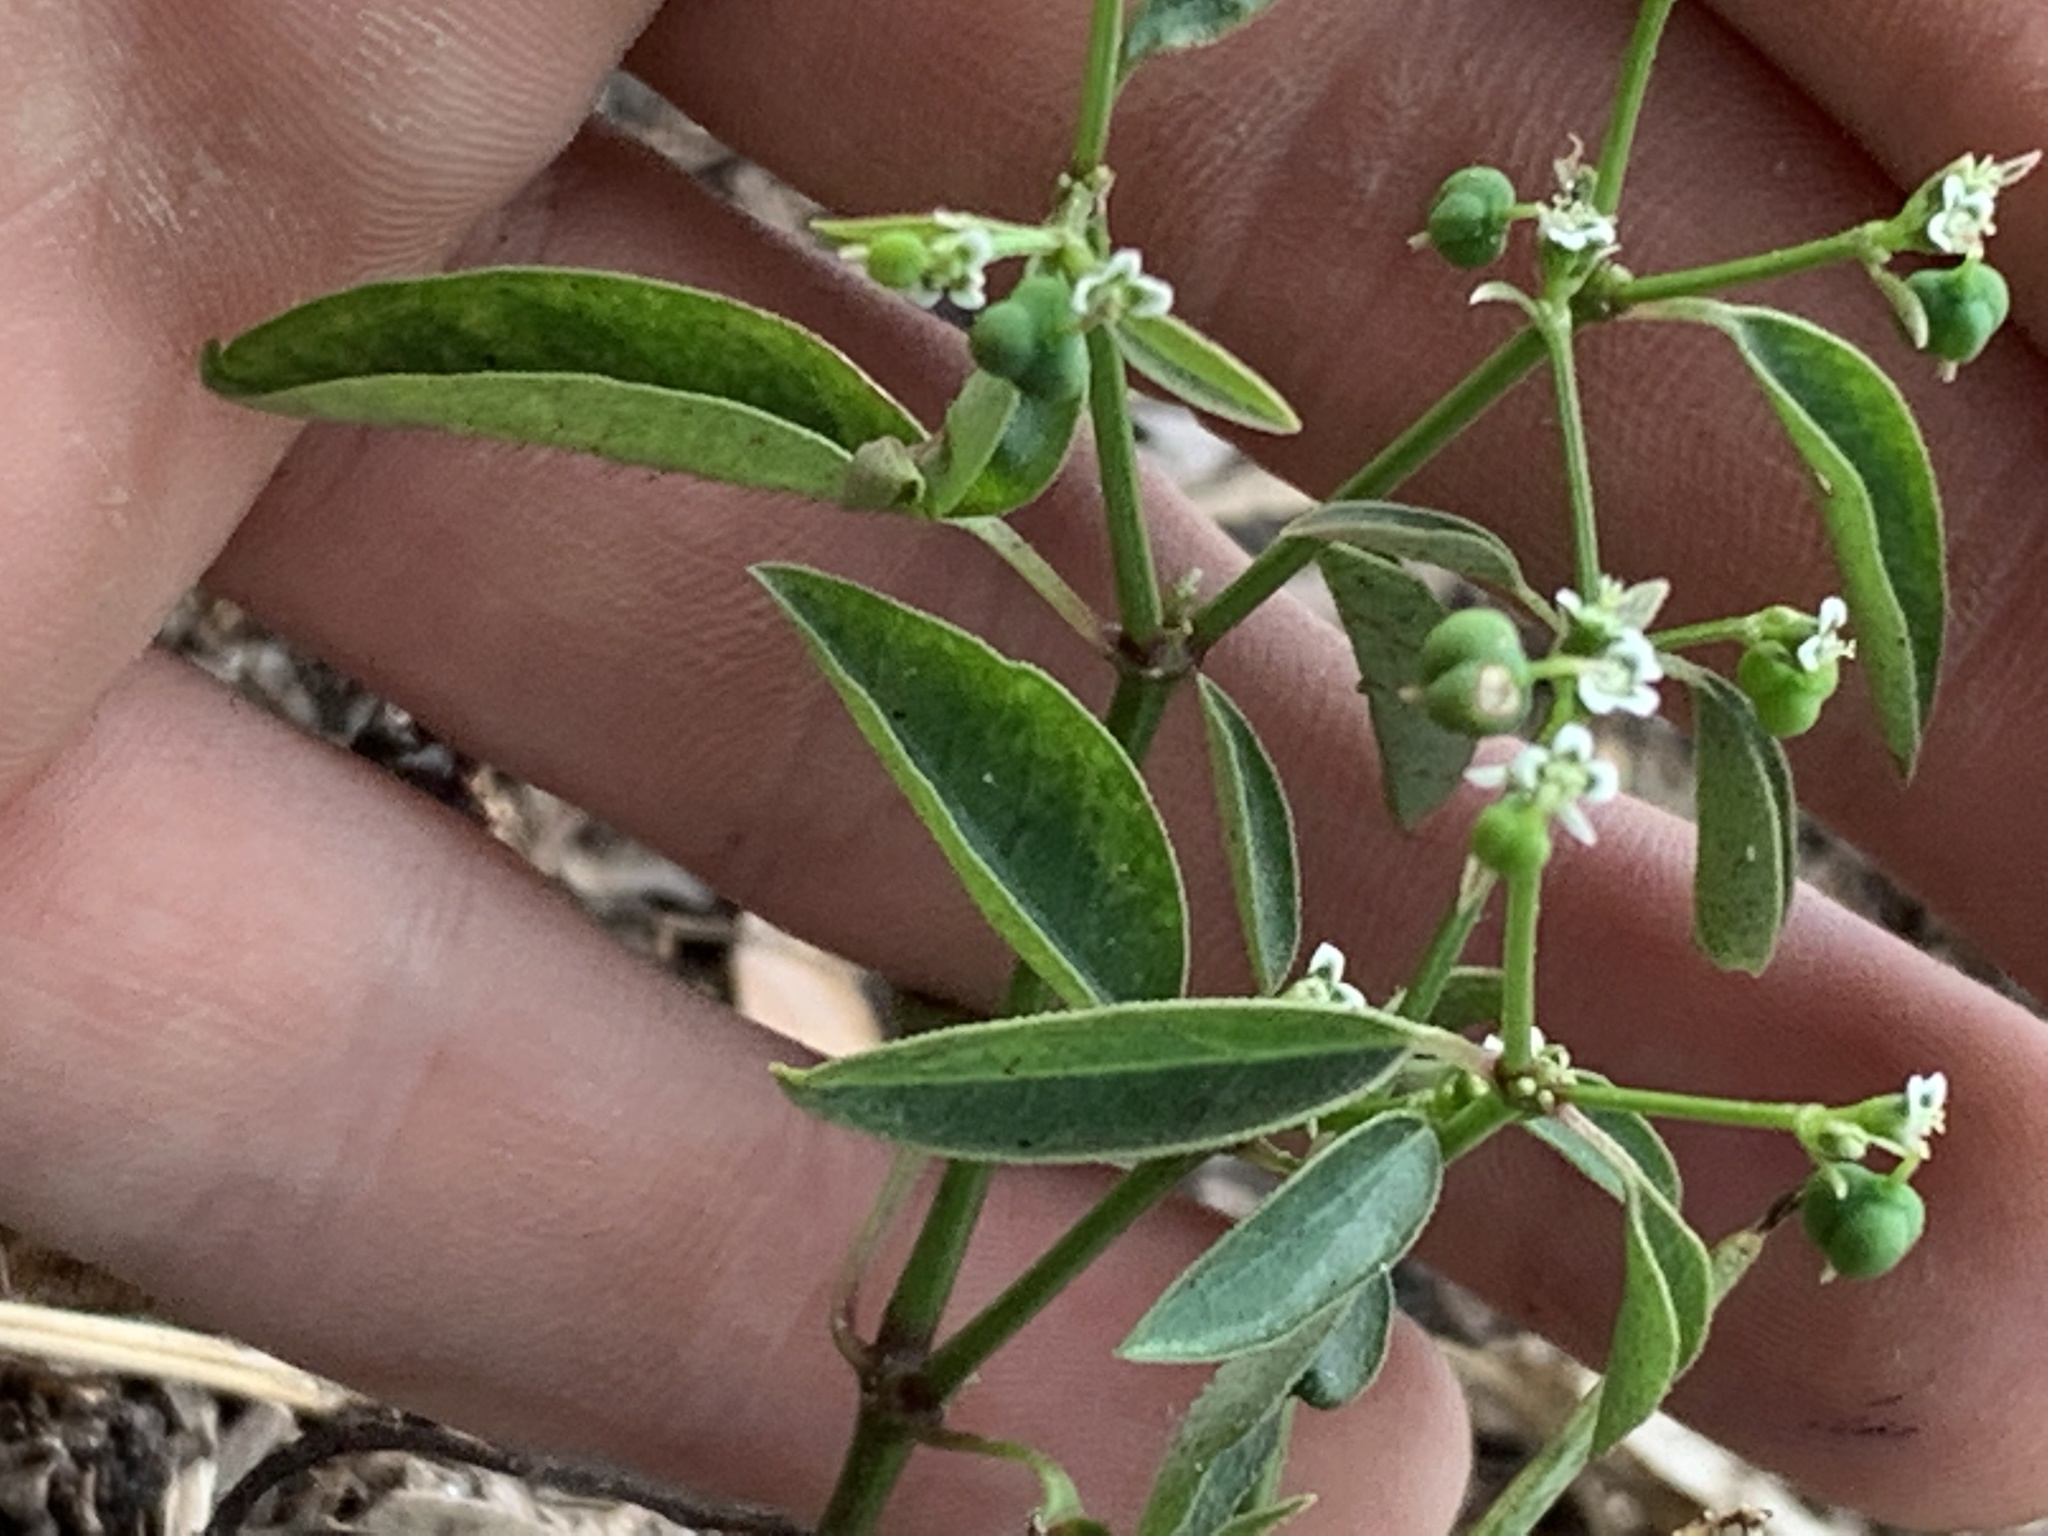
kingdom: Plantae
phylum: Tracheophyta
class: Magnoliopsida
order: Malpighiales
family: Euphorbiaceae
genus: Euphorbia
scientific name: Euphorbia graminea
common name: Grassleaf spurge
